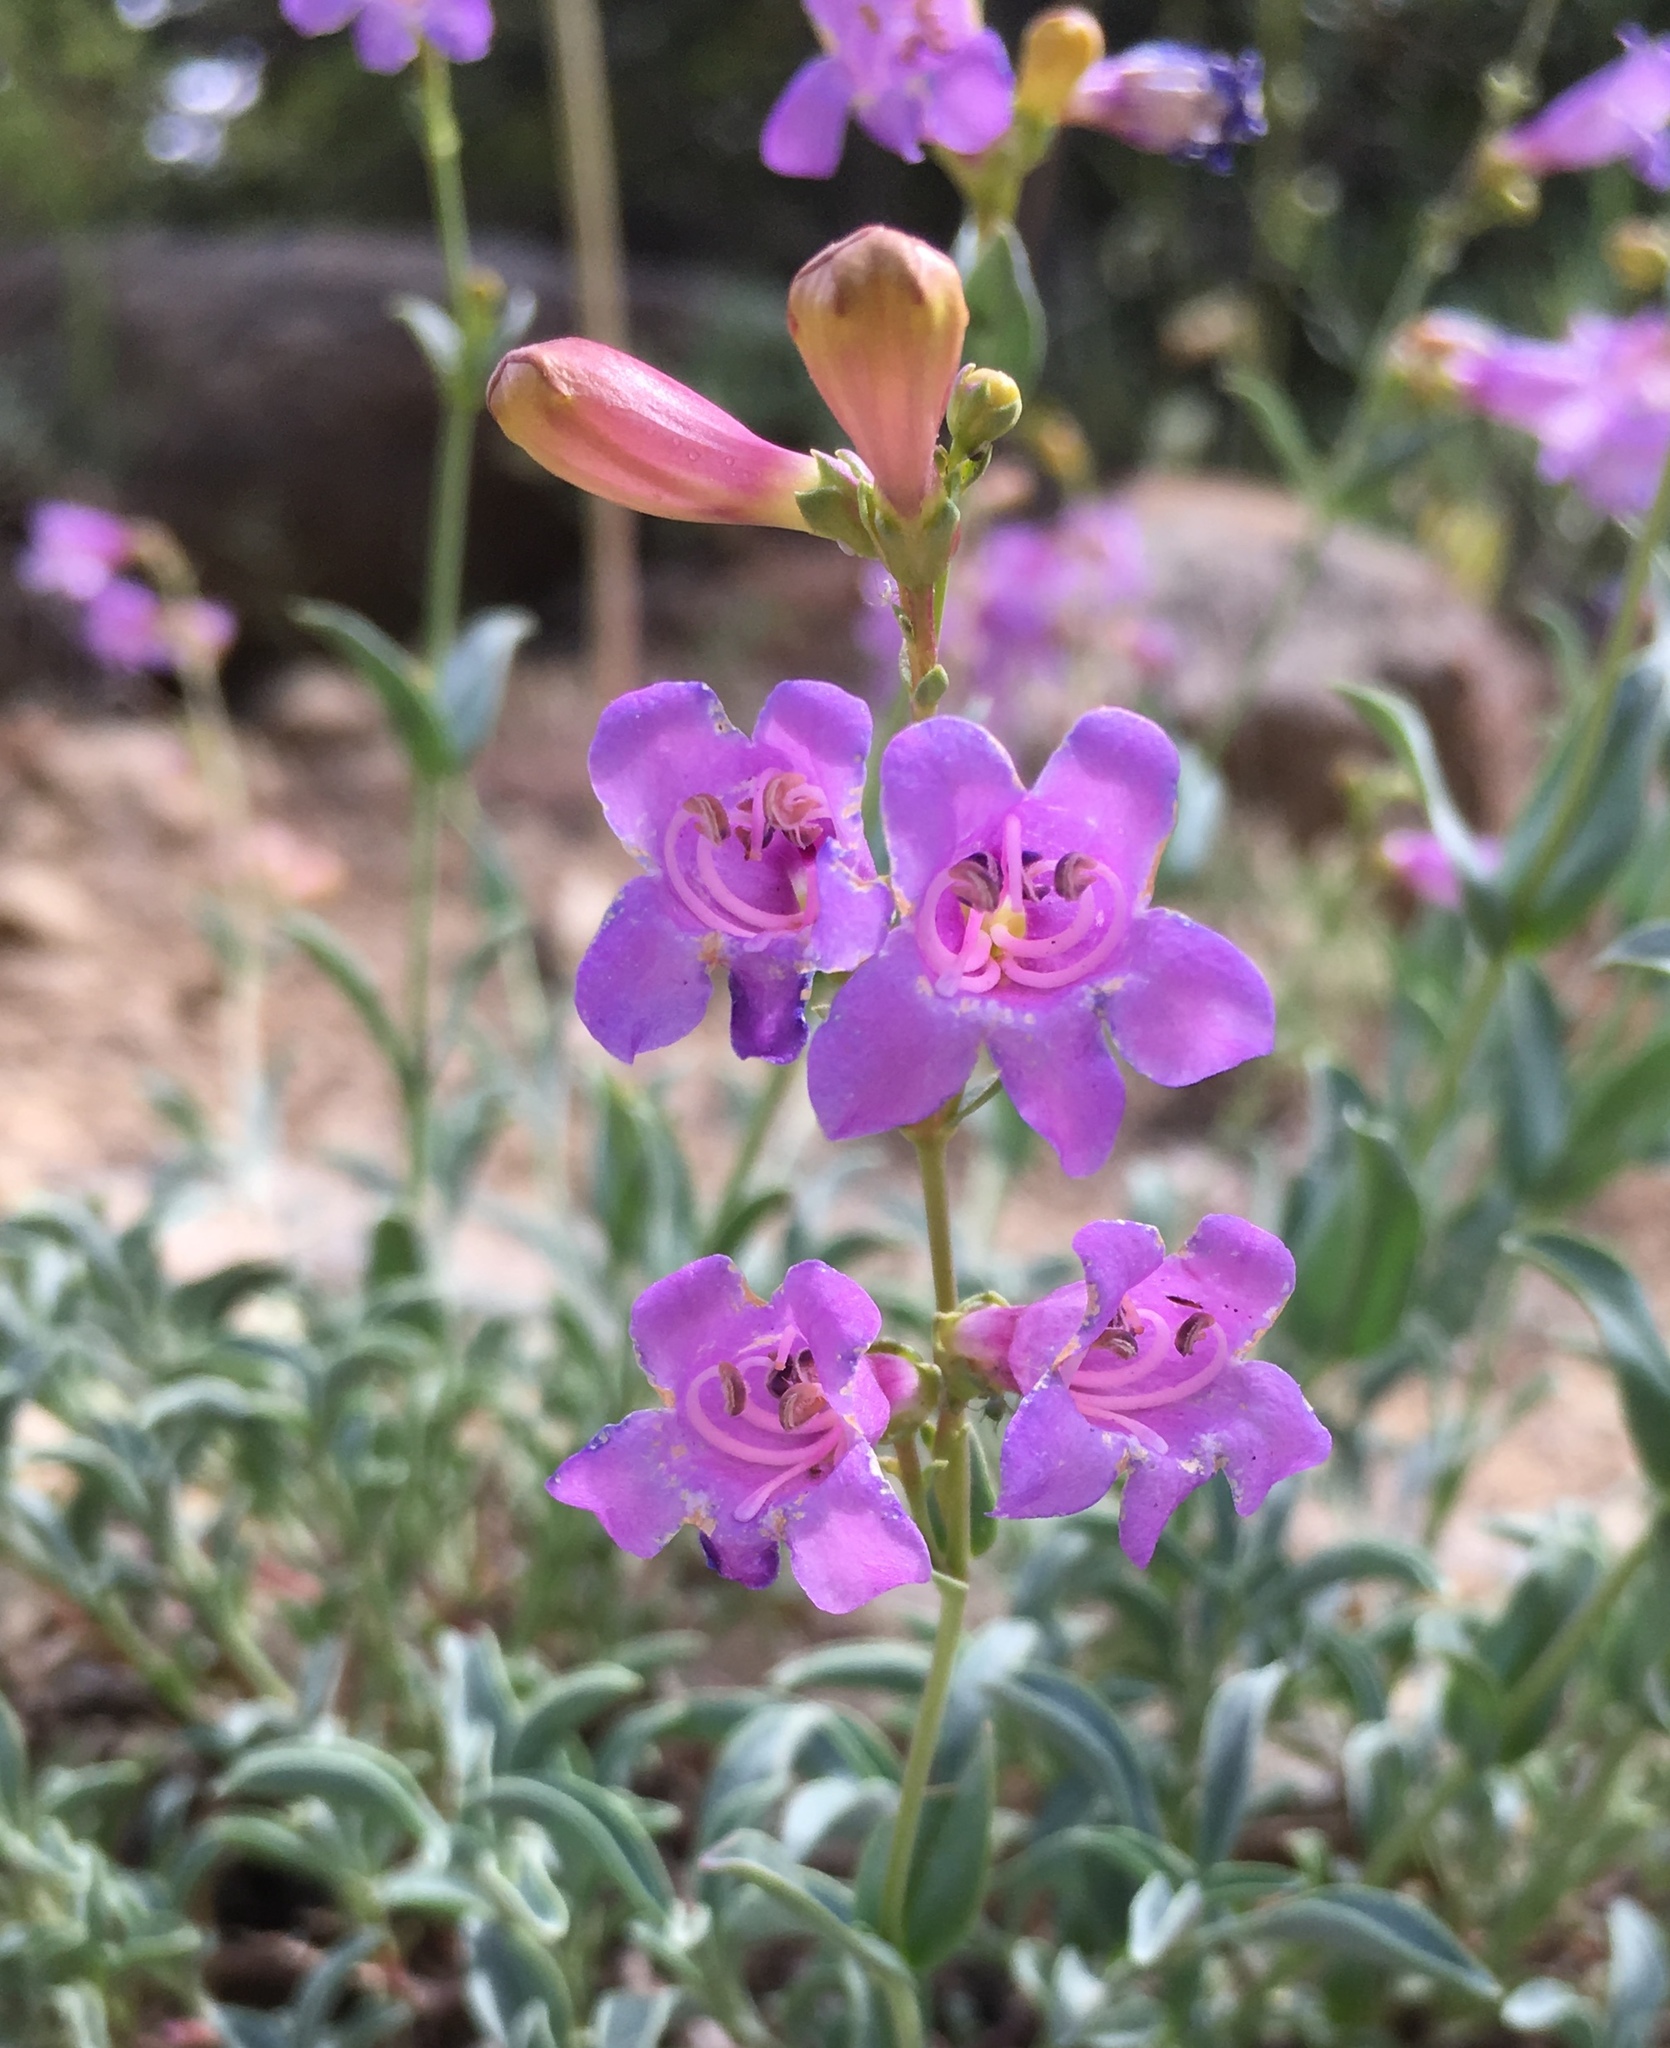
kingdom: Plantae
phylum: Tracheophyta
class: Magnoliopsida
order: Lamiales
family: Plantaginaceae
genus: Penstemon
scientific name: Penstemon parvulus
